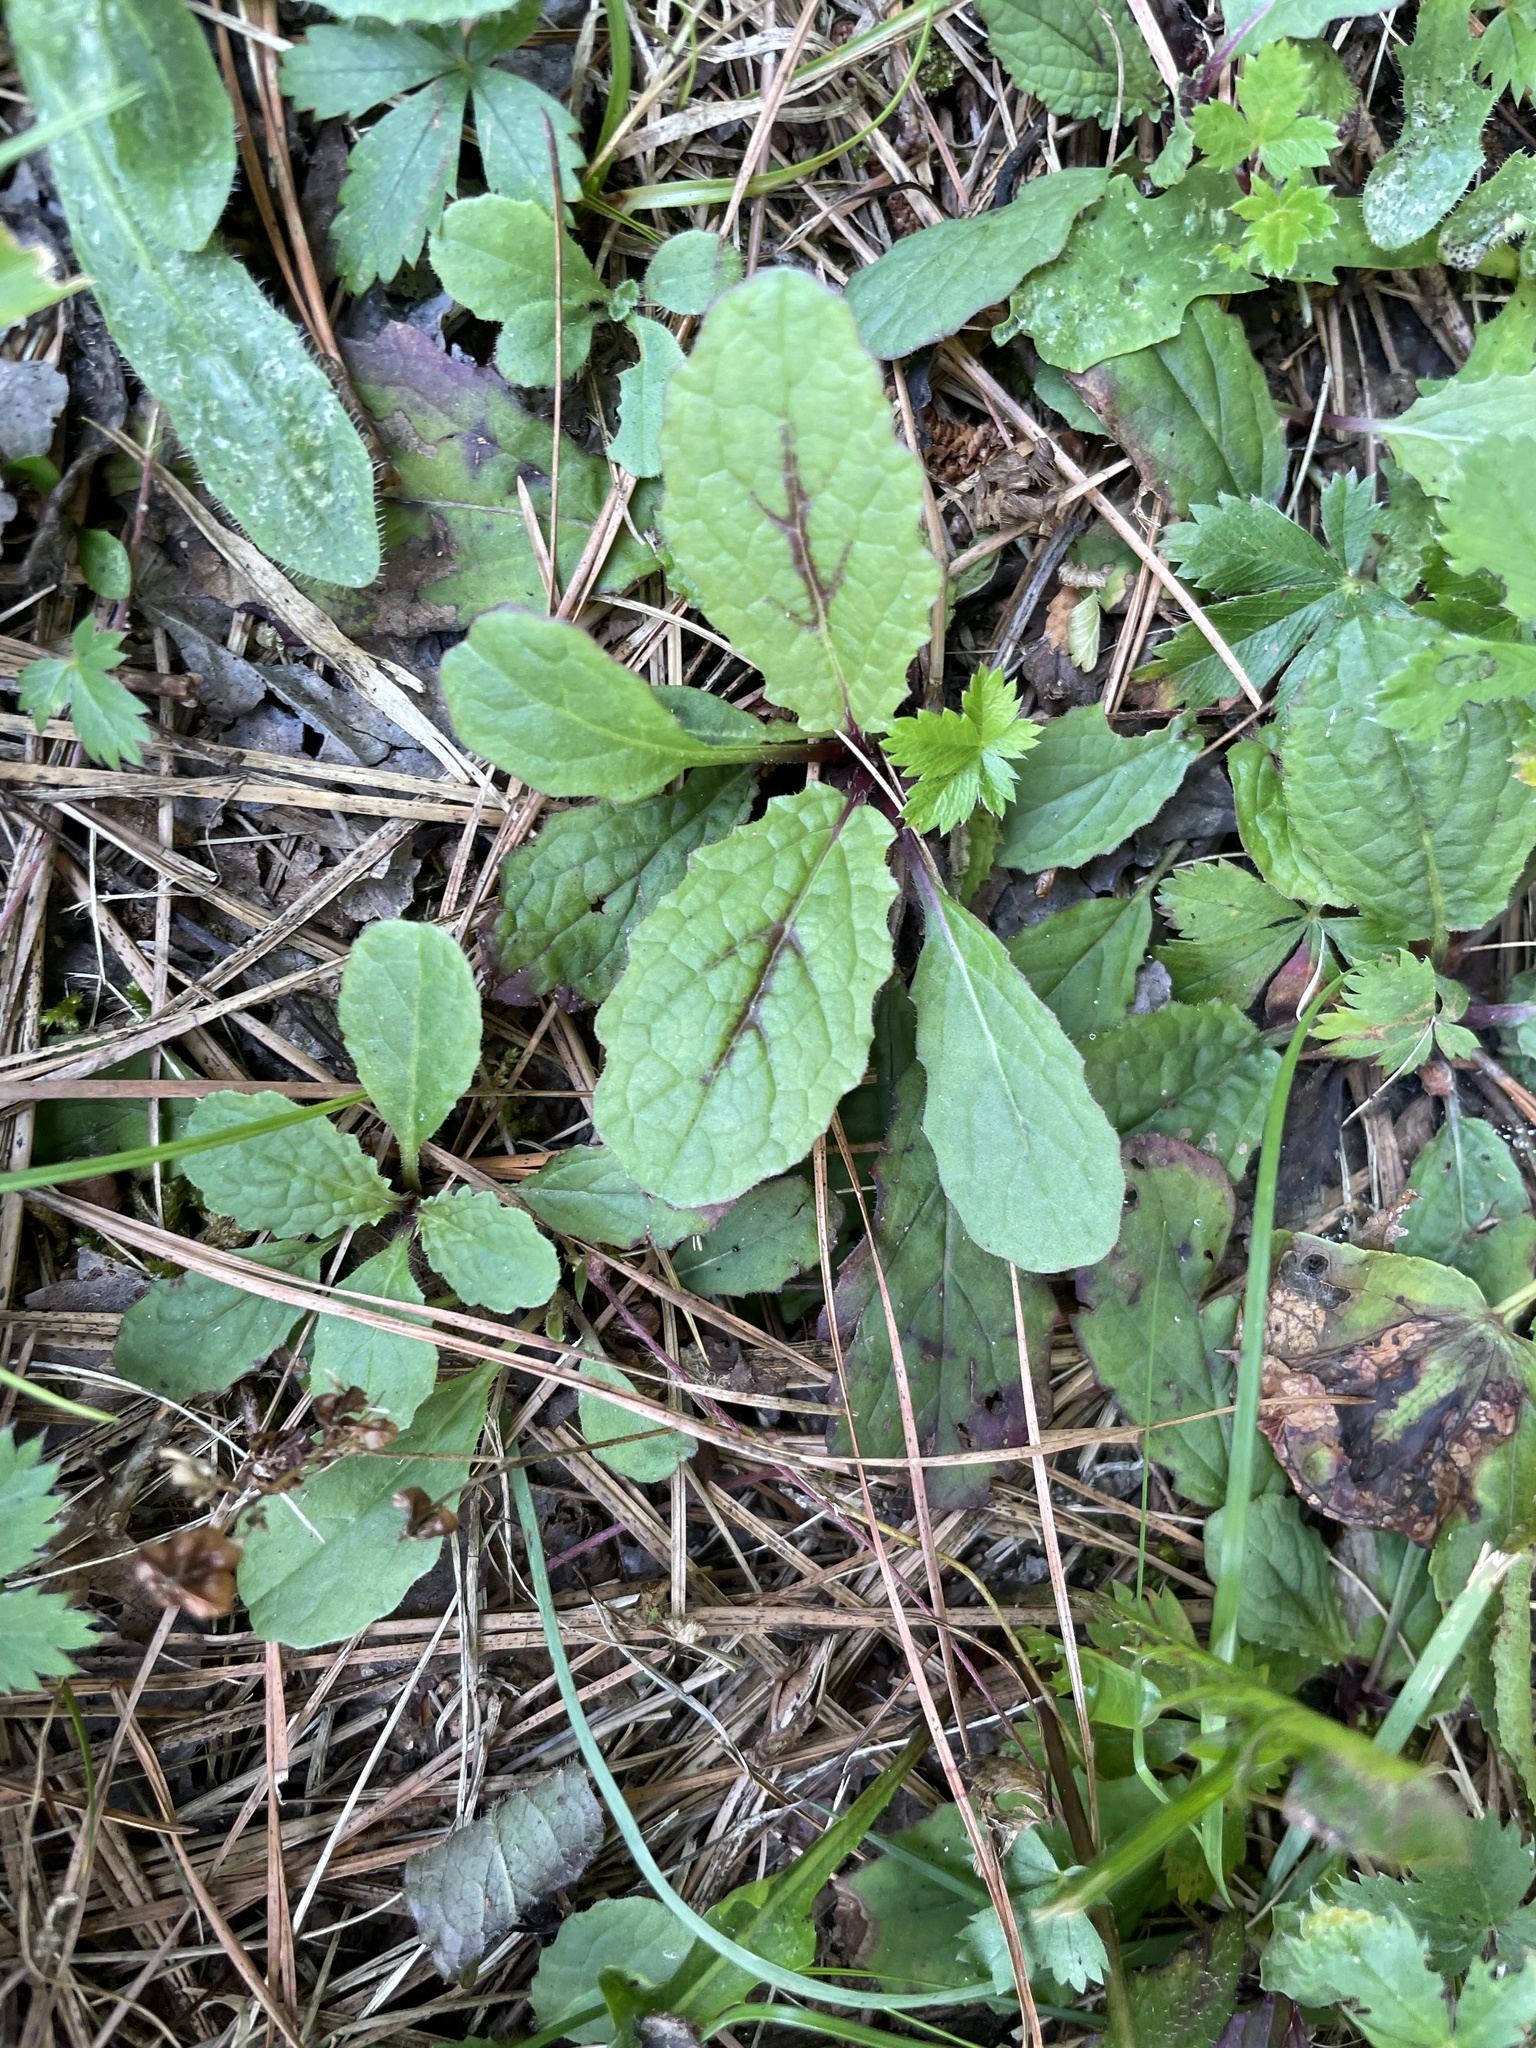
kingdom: Plantae
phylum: Tracheophyta
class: Magnoliopsida
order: Lamiales
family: Lamiaceae
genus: Salvia
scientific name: Salvia lyrata
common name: Cancerweed
